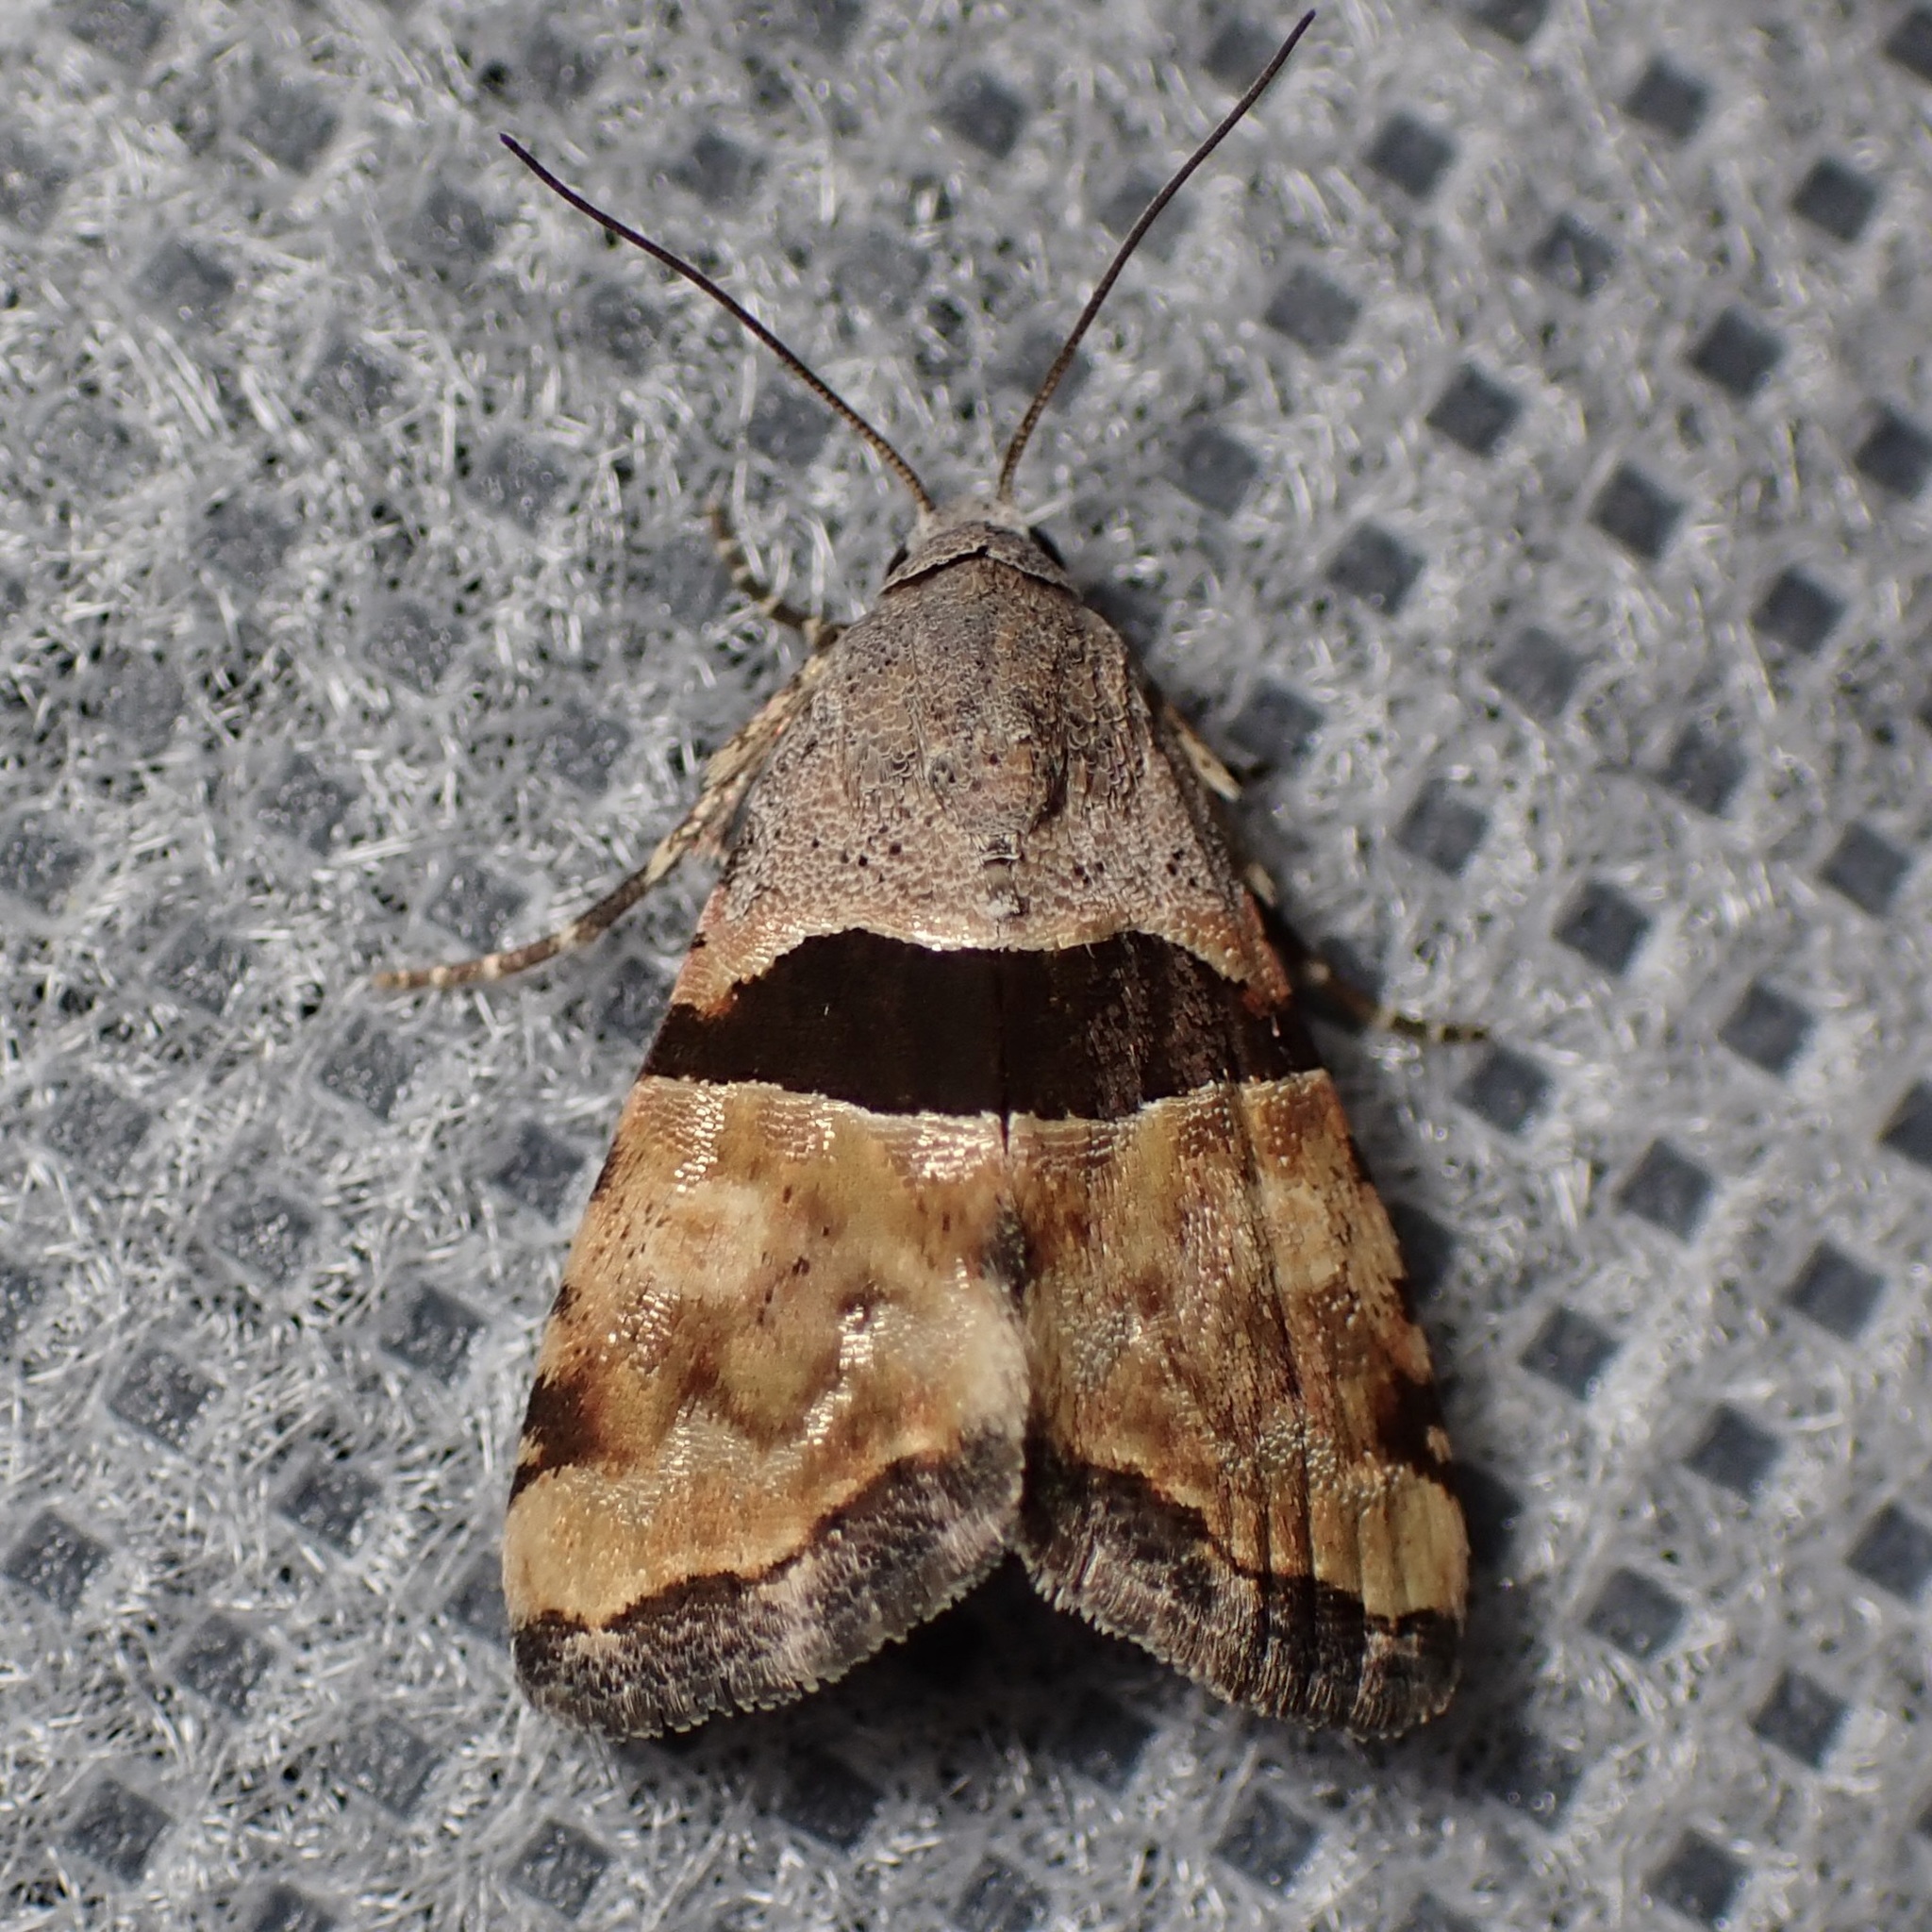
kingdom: Animalia
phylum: Arthropoda
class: Insecta
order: Lepidoptera
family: Noctuidae
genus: Cobubatha
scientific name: Cobubatha lixiva
